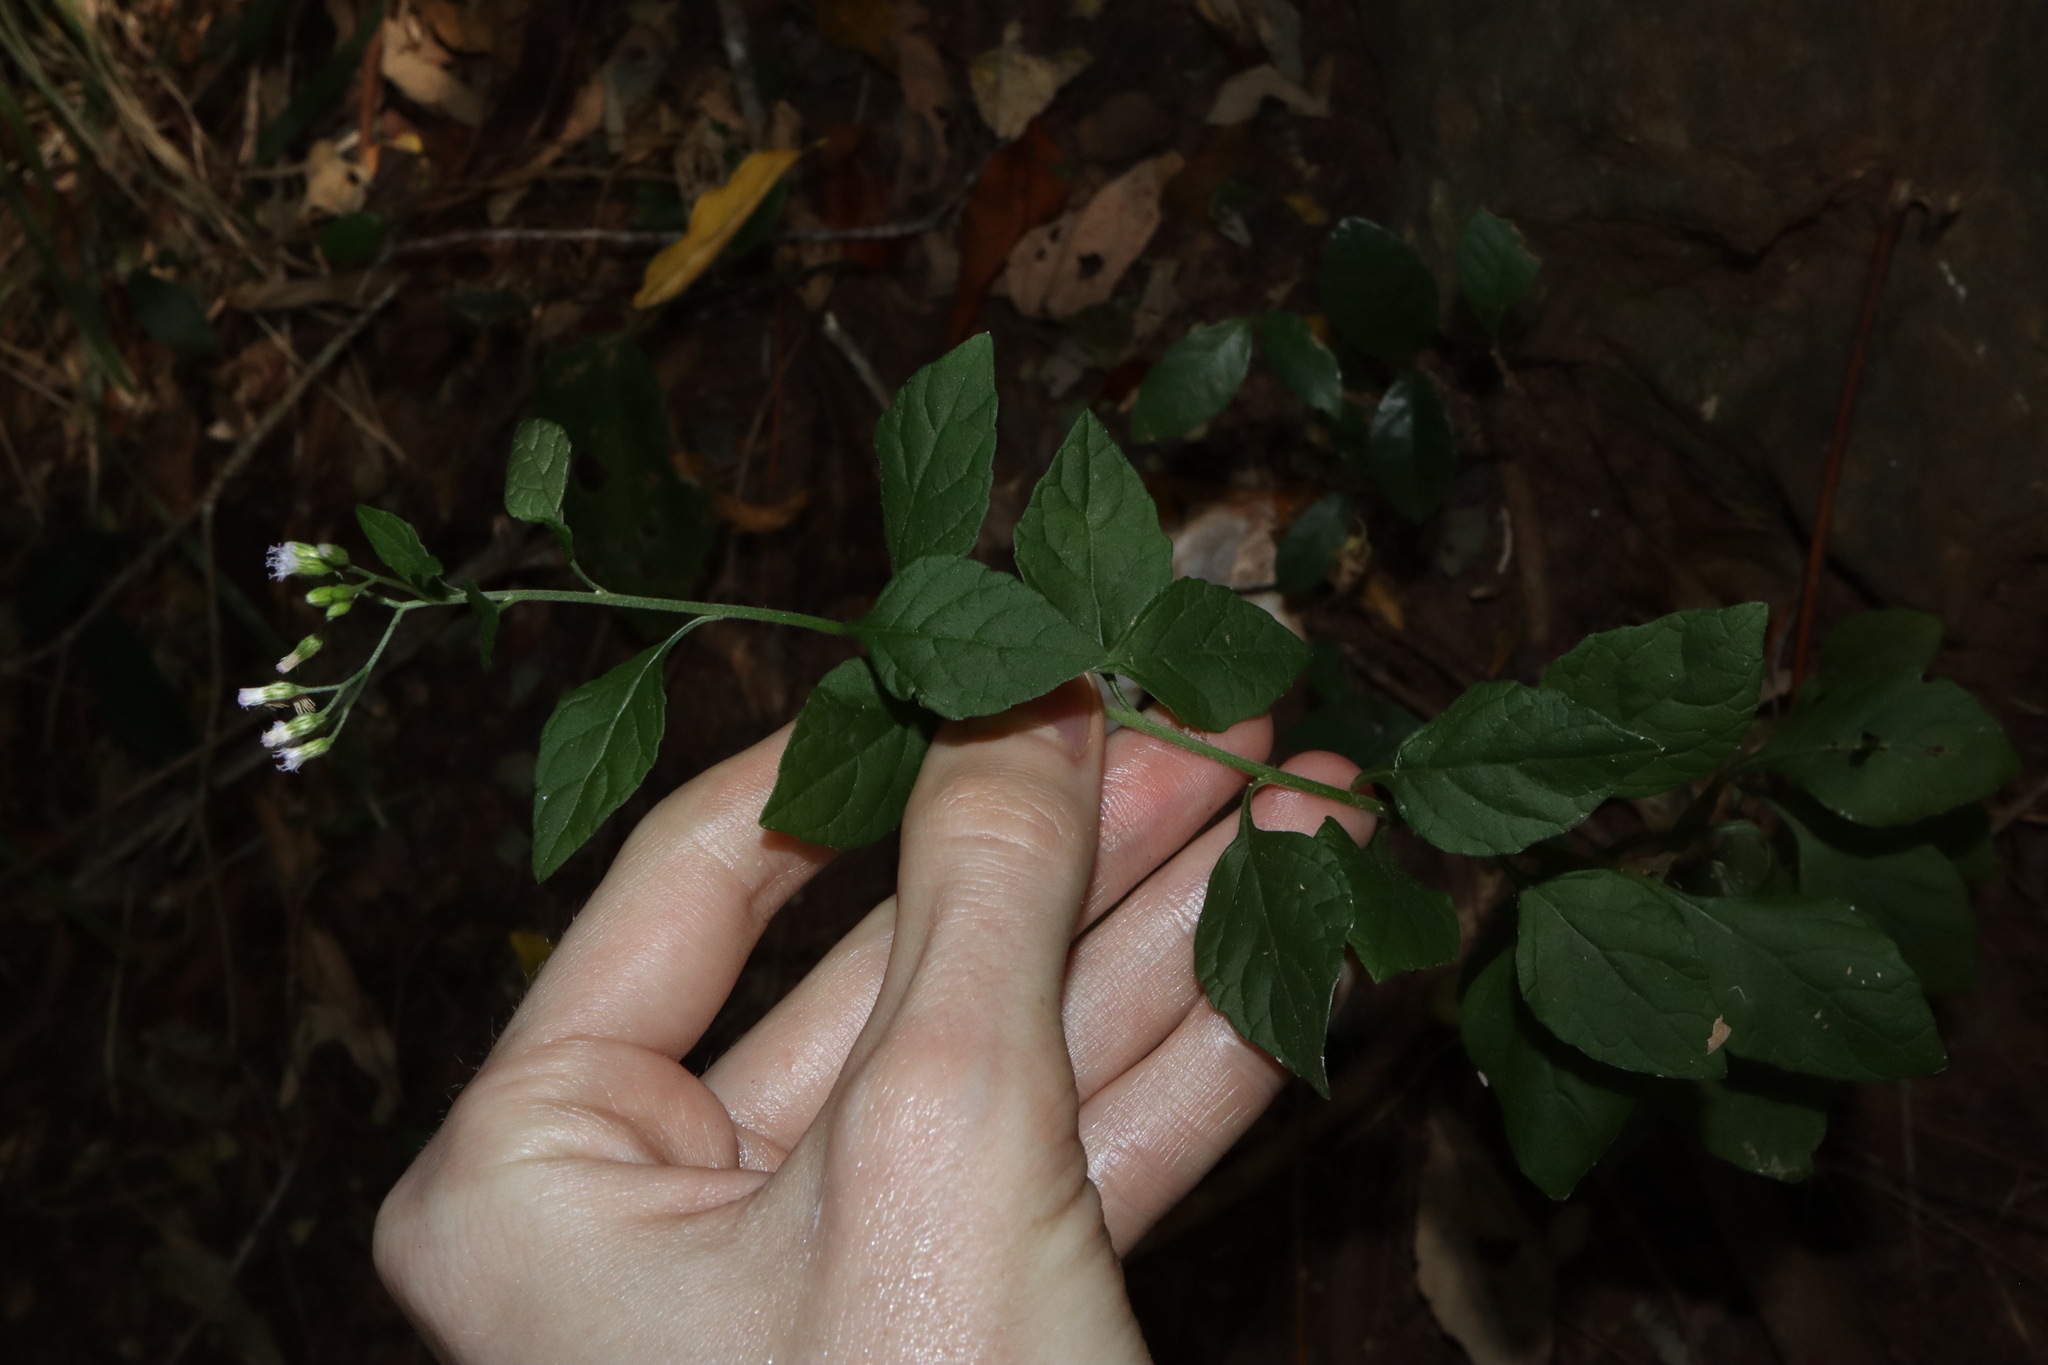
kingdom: Plantae
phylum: Tracheophyta
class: Magnoliopsida
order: Asterales
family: Asteraceae
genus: Cyanthillium
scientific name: Cyanthillium cinereum
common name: Little ironweed
